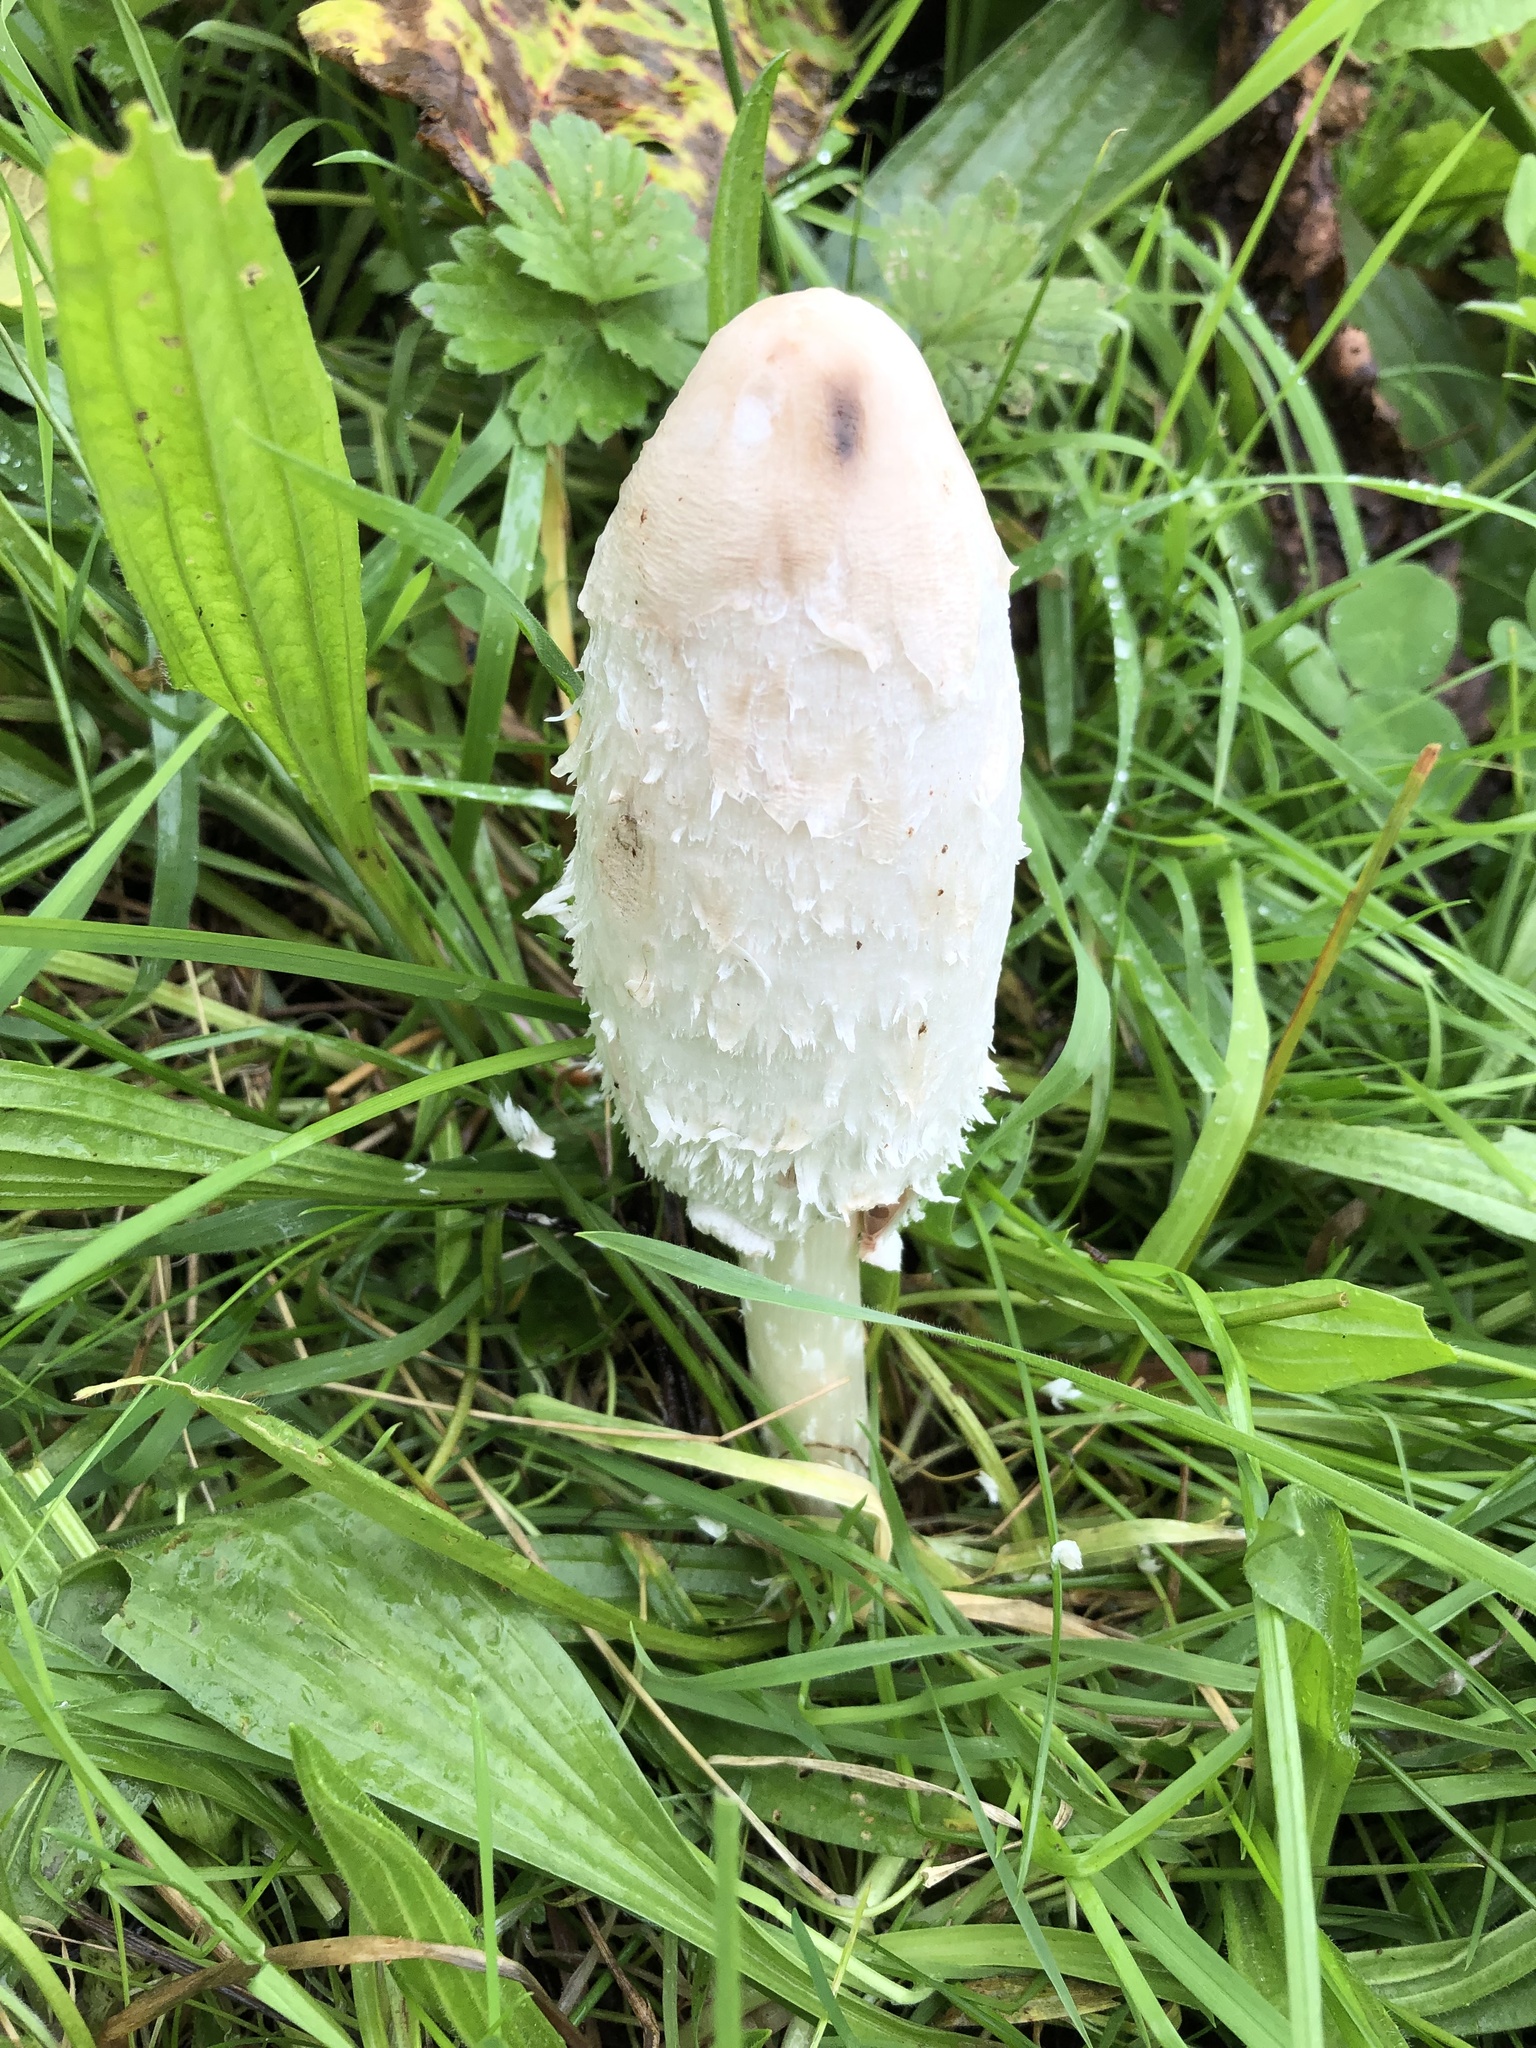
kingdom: Fungi
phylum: Basidiomycota
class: Agaricomycetes
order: Agaricales
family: Agaricaceae
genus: Coprinus
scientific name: Coprinus comatus
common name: Lawyer's wig
